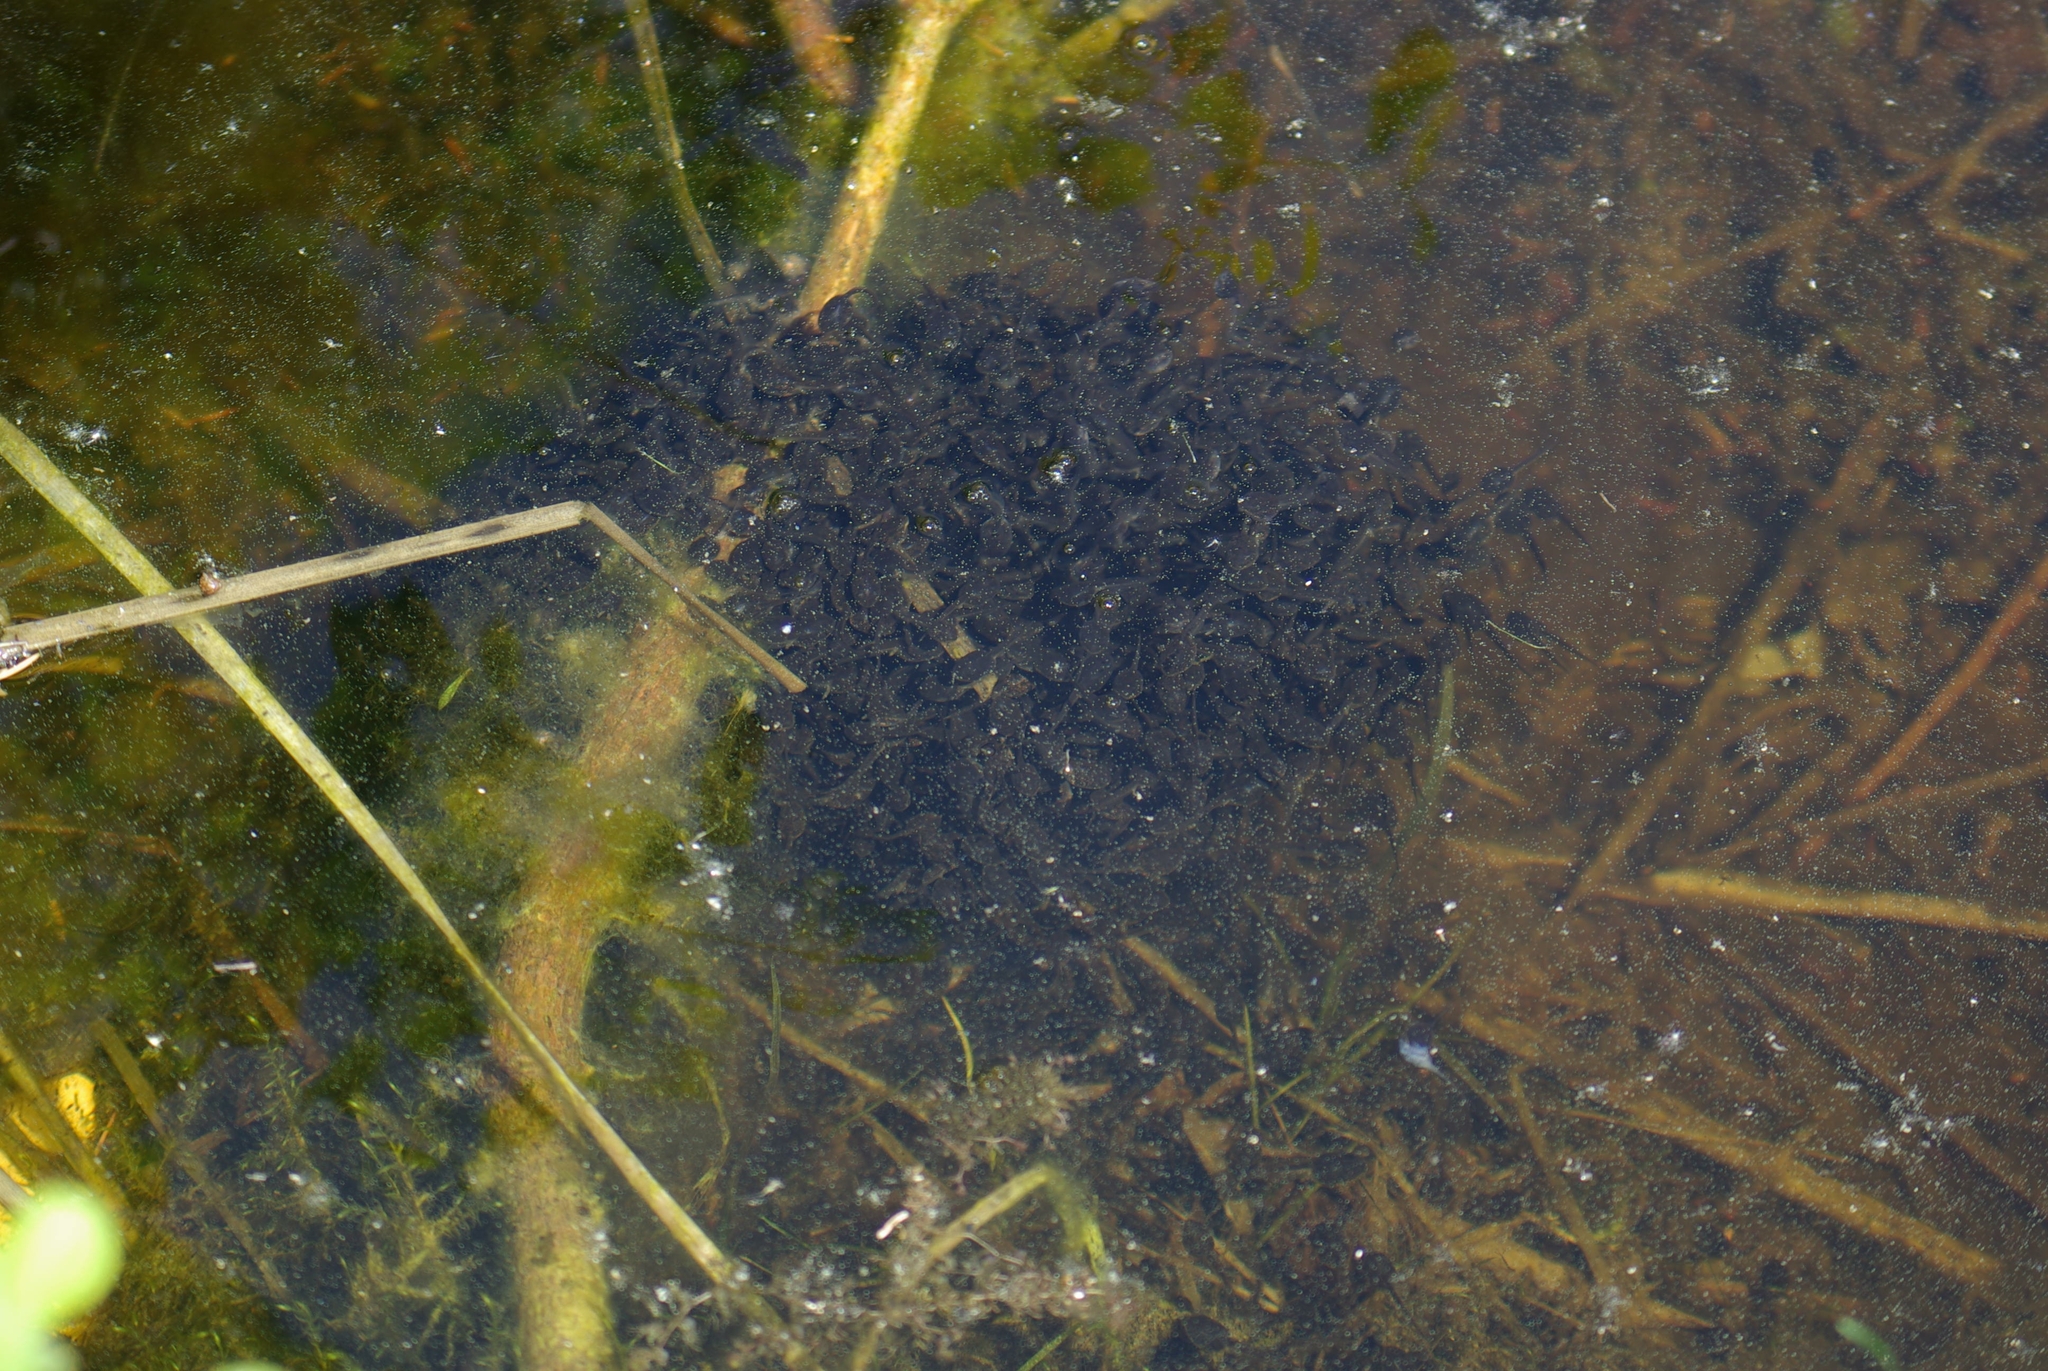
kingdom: Animalia
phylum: Chordata
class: Amphibia
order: Anura
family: Ranidae
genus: Lithobates
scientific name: Lithobates sylvaticus
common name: Wood frog
